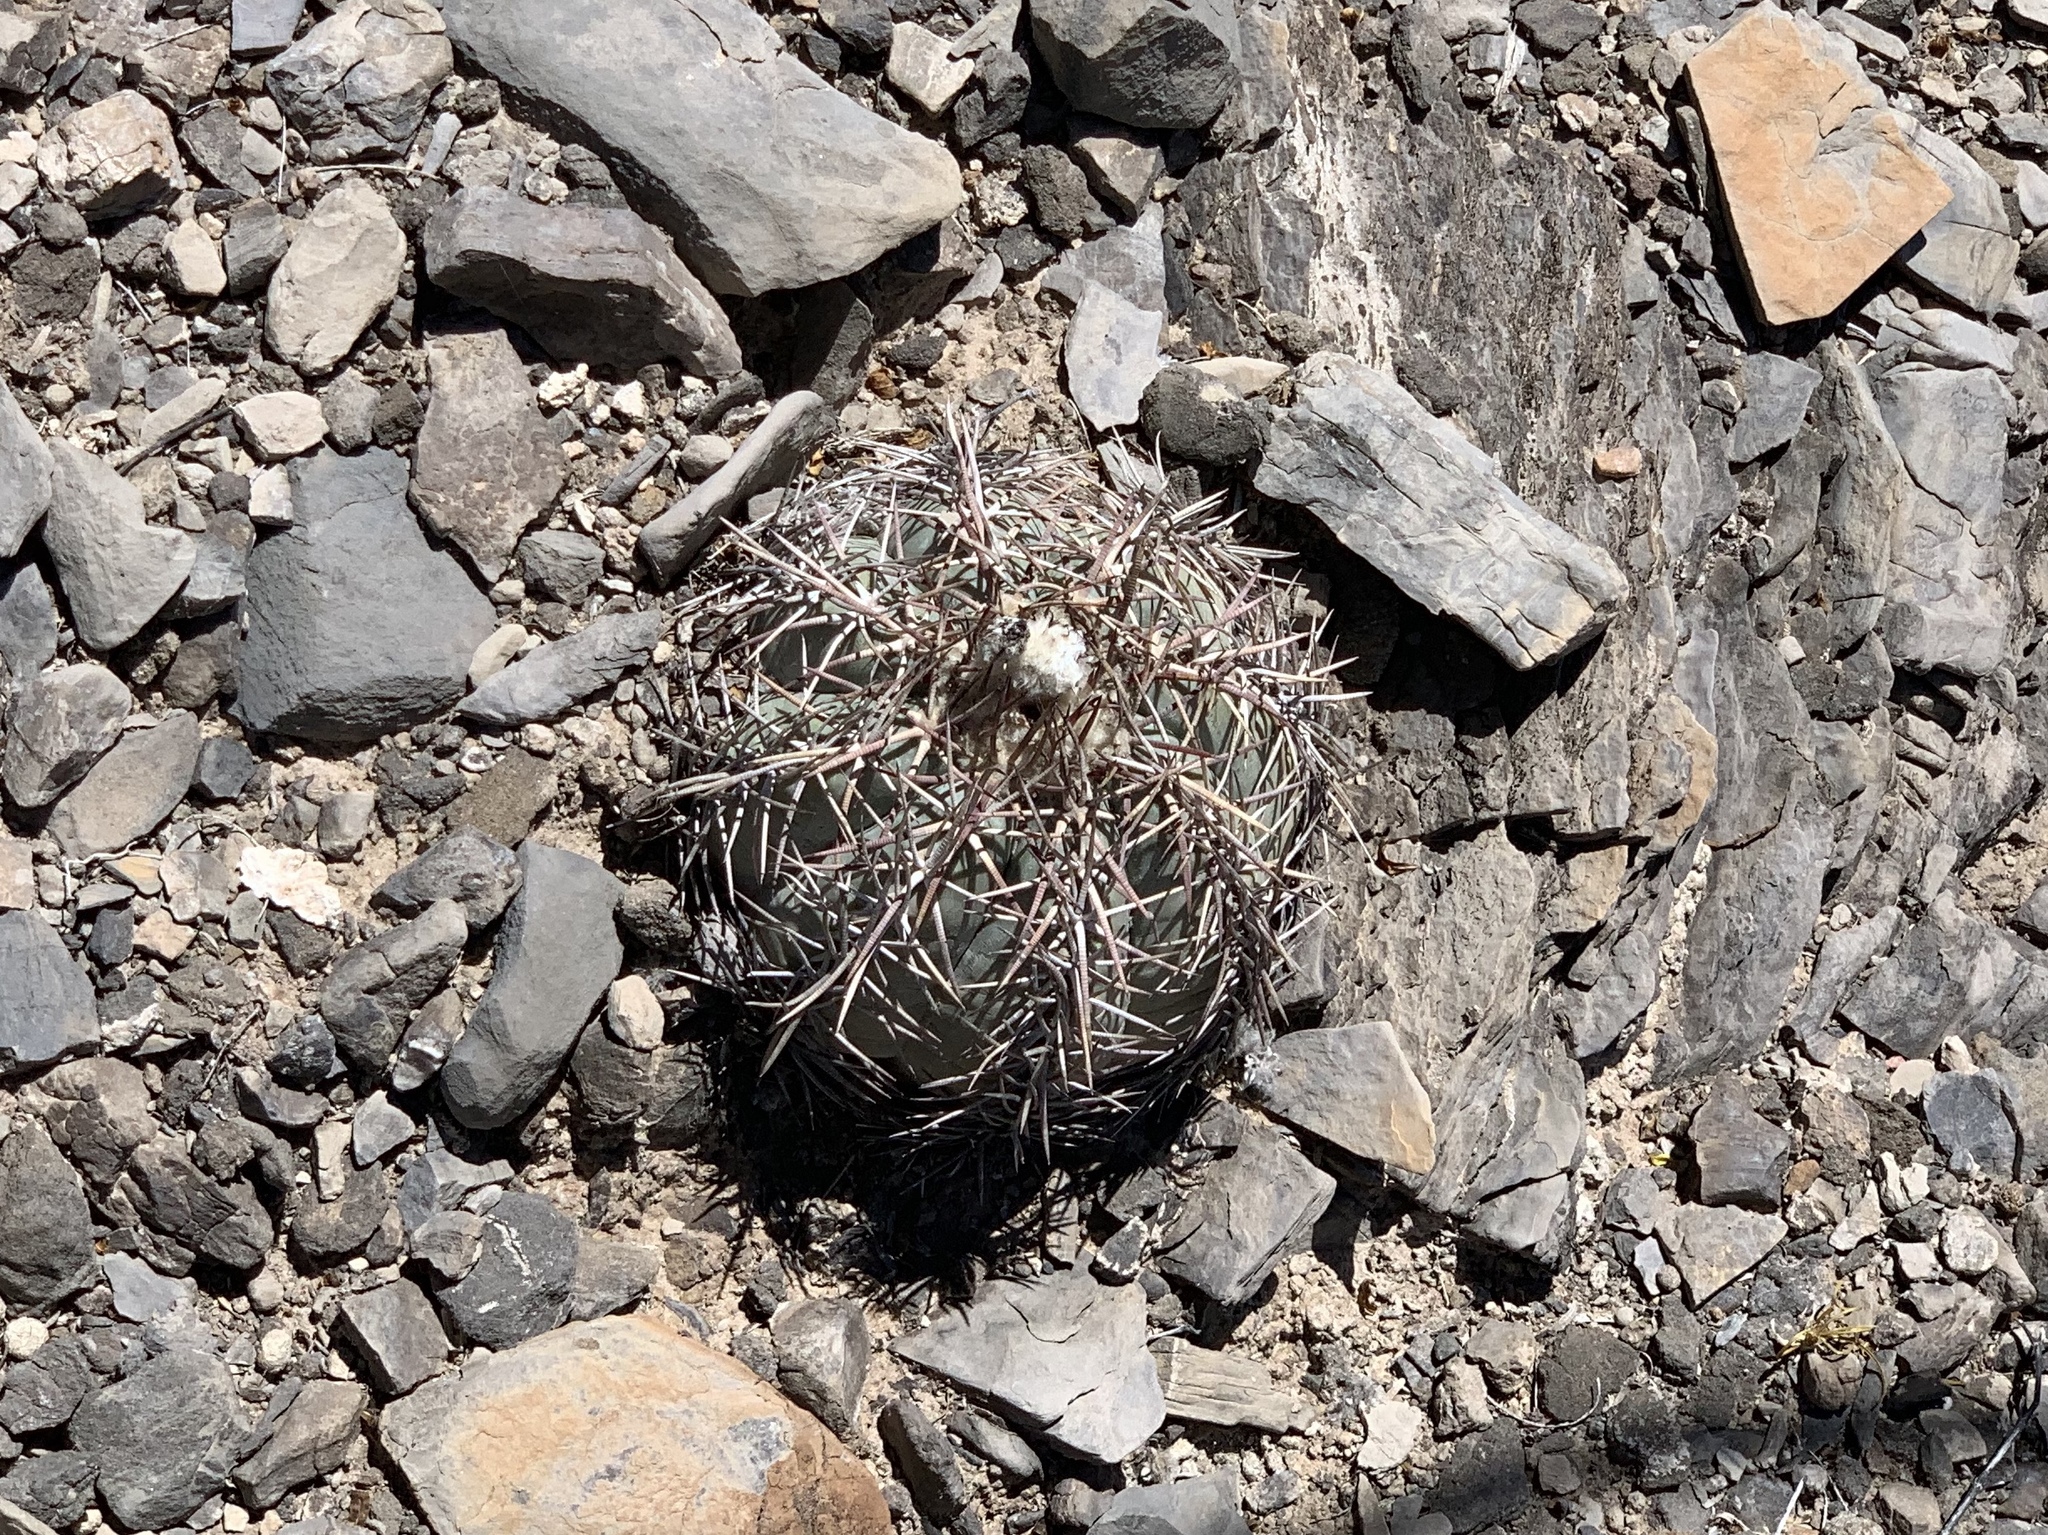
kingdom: Plantae
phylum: Tracheophyta
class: Magnoliopsida
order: Caryophyllales
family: Cactaceae
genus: Echinocactus
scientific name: Echinocactus horizonthalonius
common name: Devilshead
